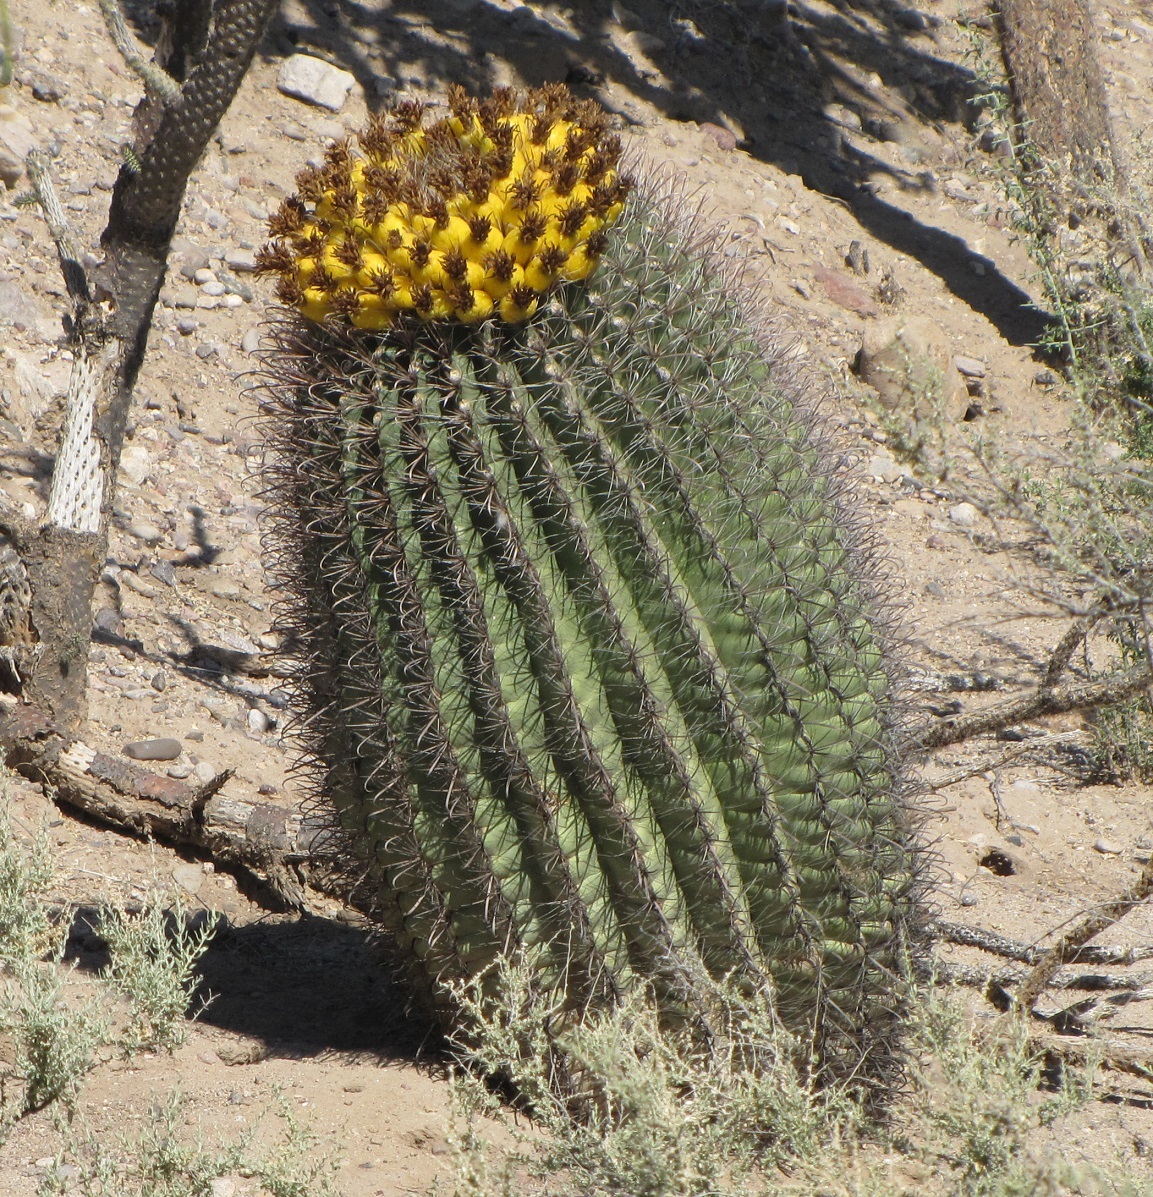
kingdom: Plantae
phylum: Tracheophyta
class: Magnoliopsida
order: Caryophyllales
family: Cactaceae
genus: Ferocactus
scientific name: Ferocactus wislizeni
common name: Candy barrel cactus
